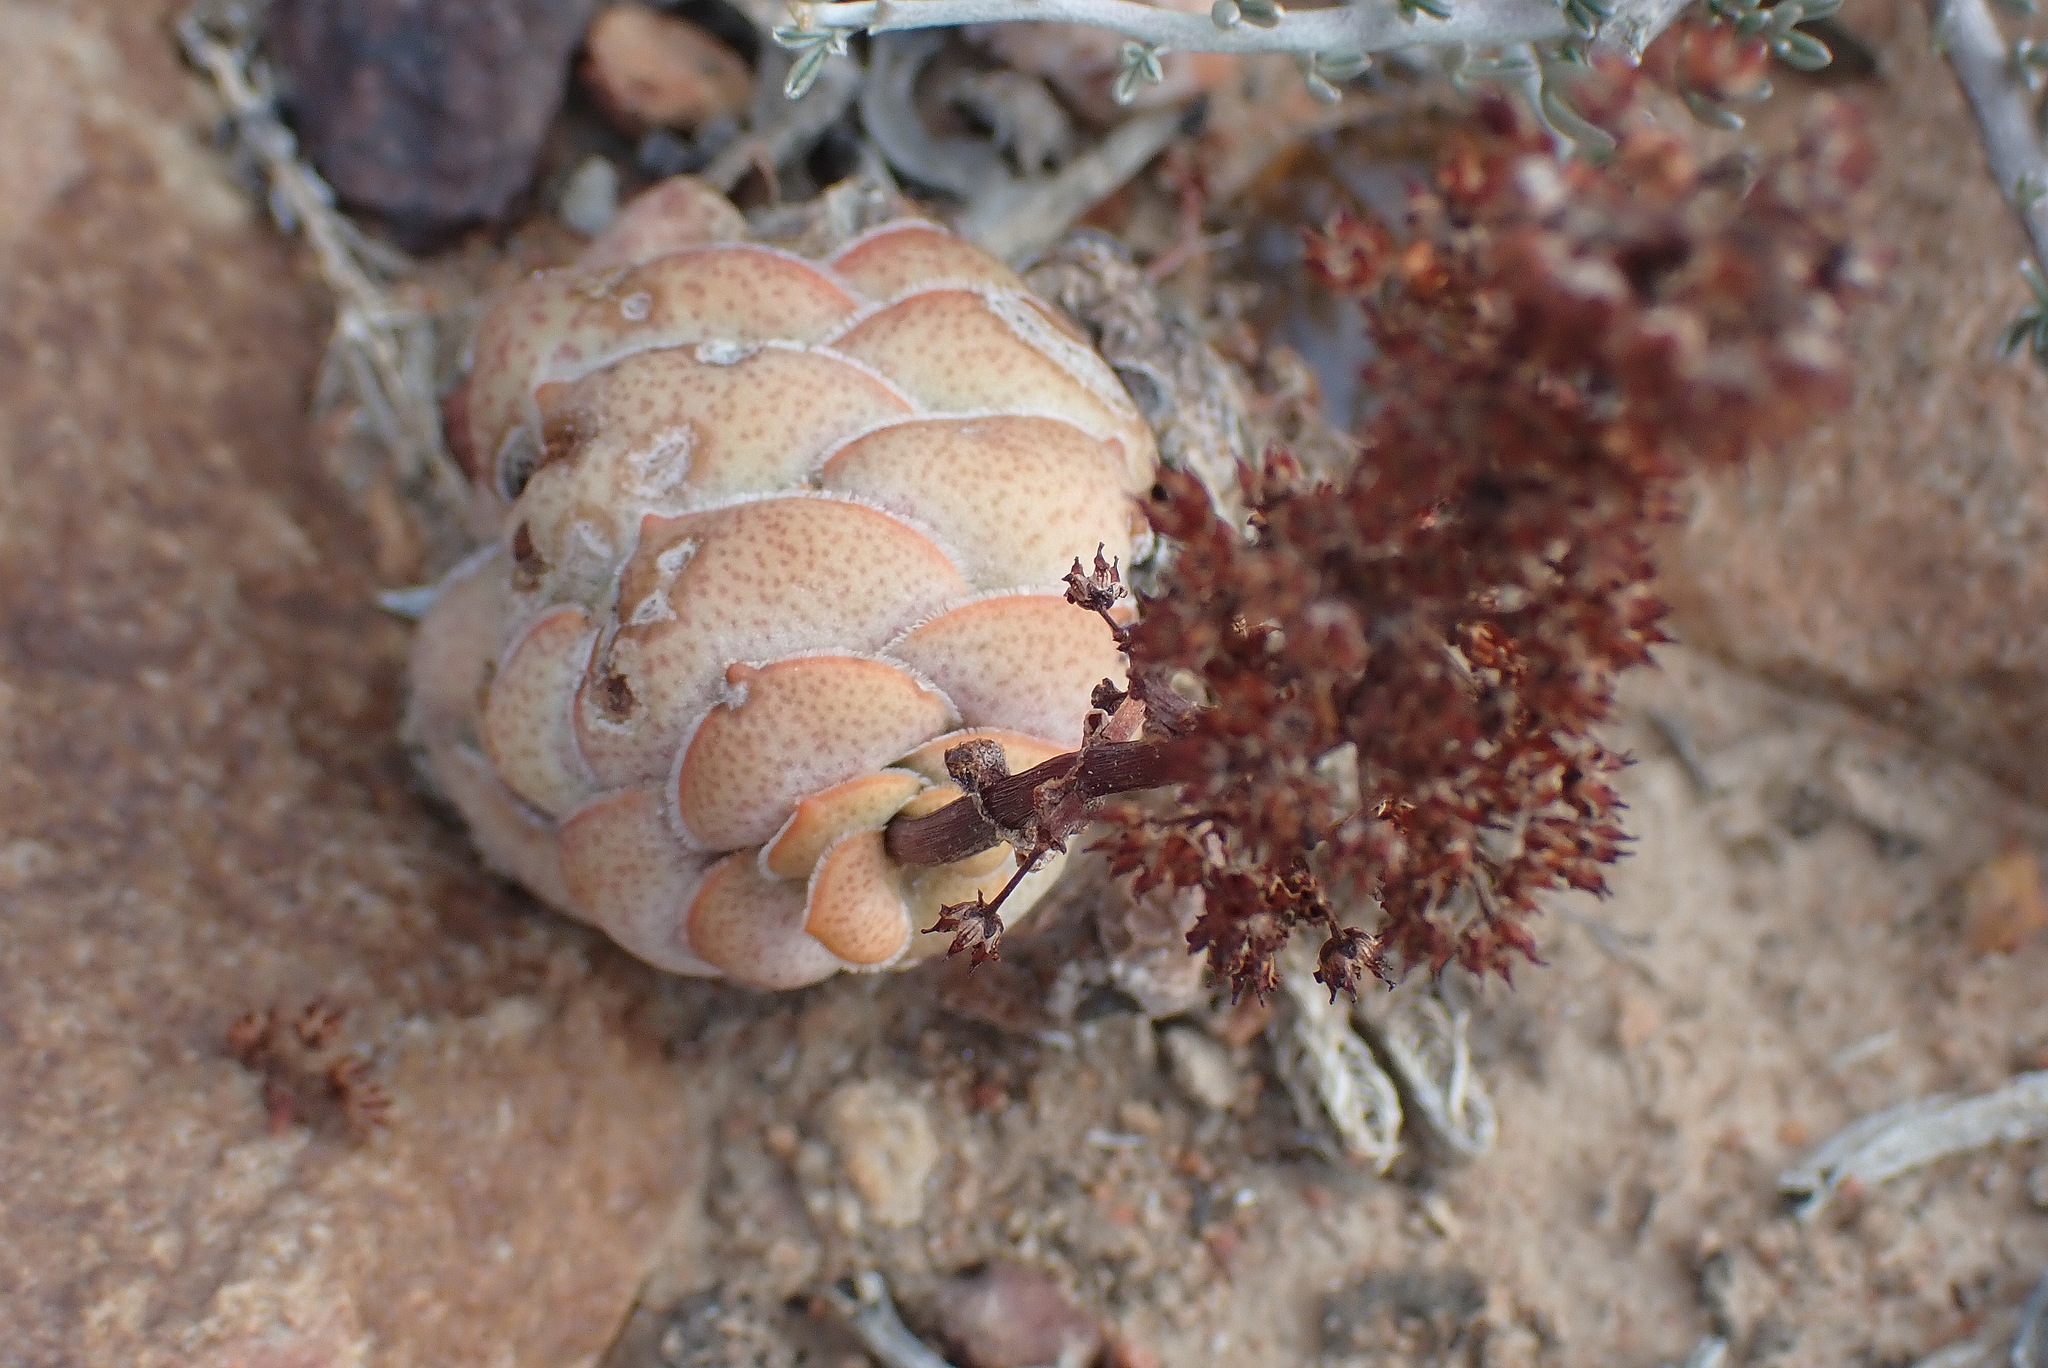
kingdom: Plantae
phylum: Tracheophyta
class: Magnoliopsida
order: Saxifragales
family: Crassulaceae
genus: Crassula
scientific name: Crassula columnaris
